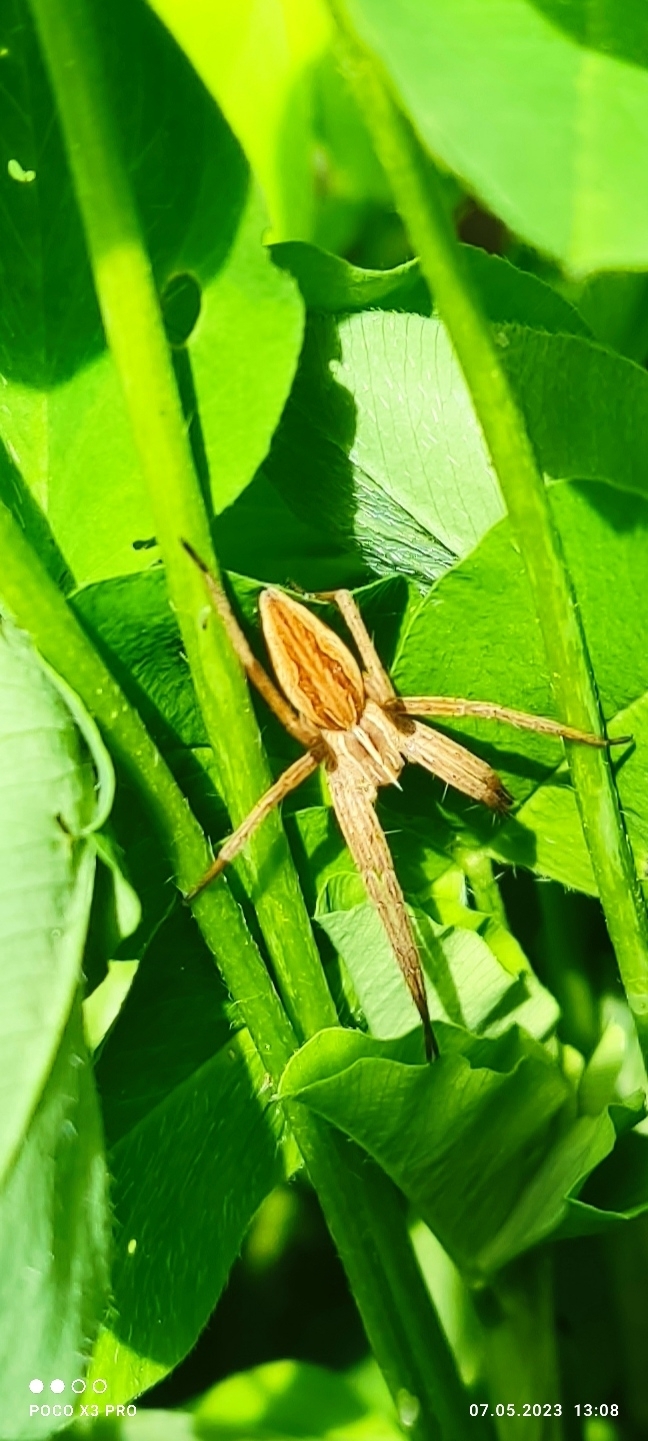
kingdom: Animalia
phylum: Arthropoda
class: Arachnida
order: Araneae
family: Pisauridae
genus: Pisaura
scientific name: Pisaura mirabilis
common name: Tent spider
